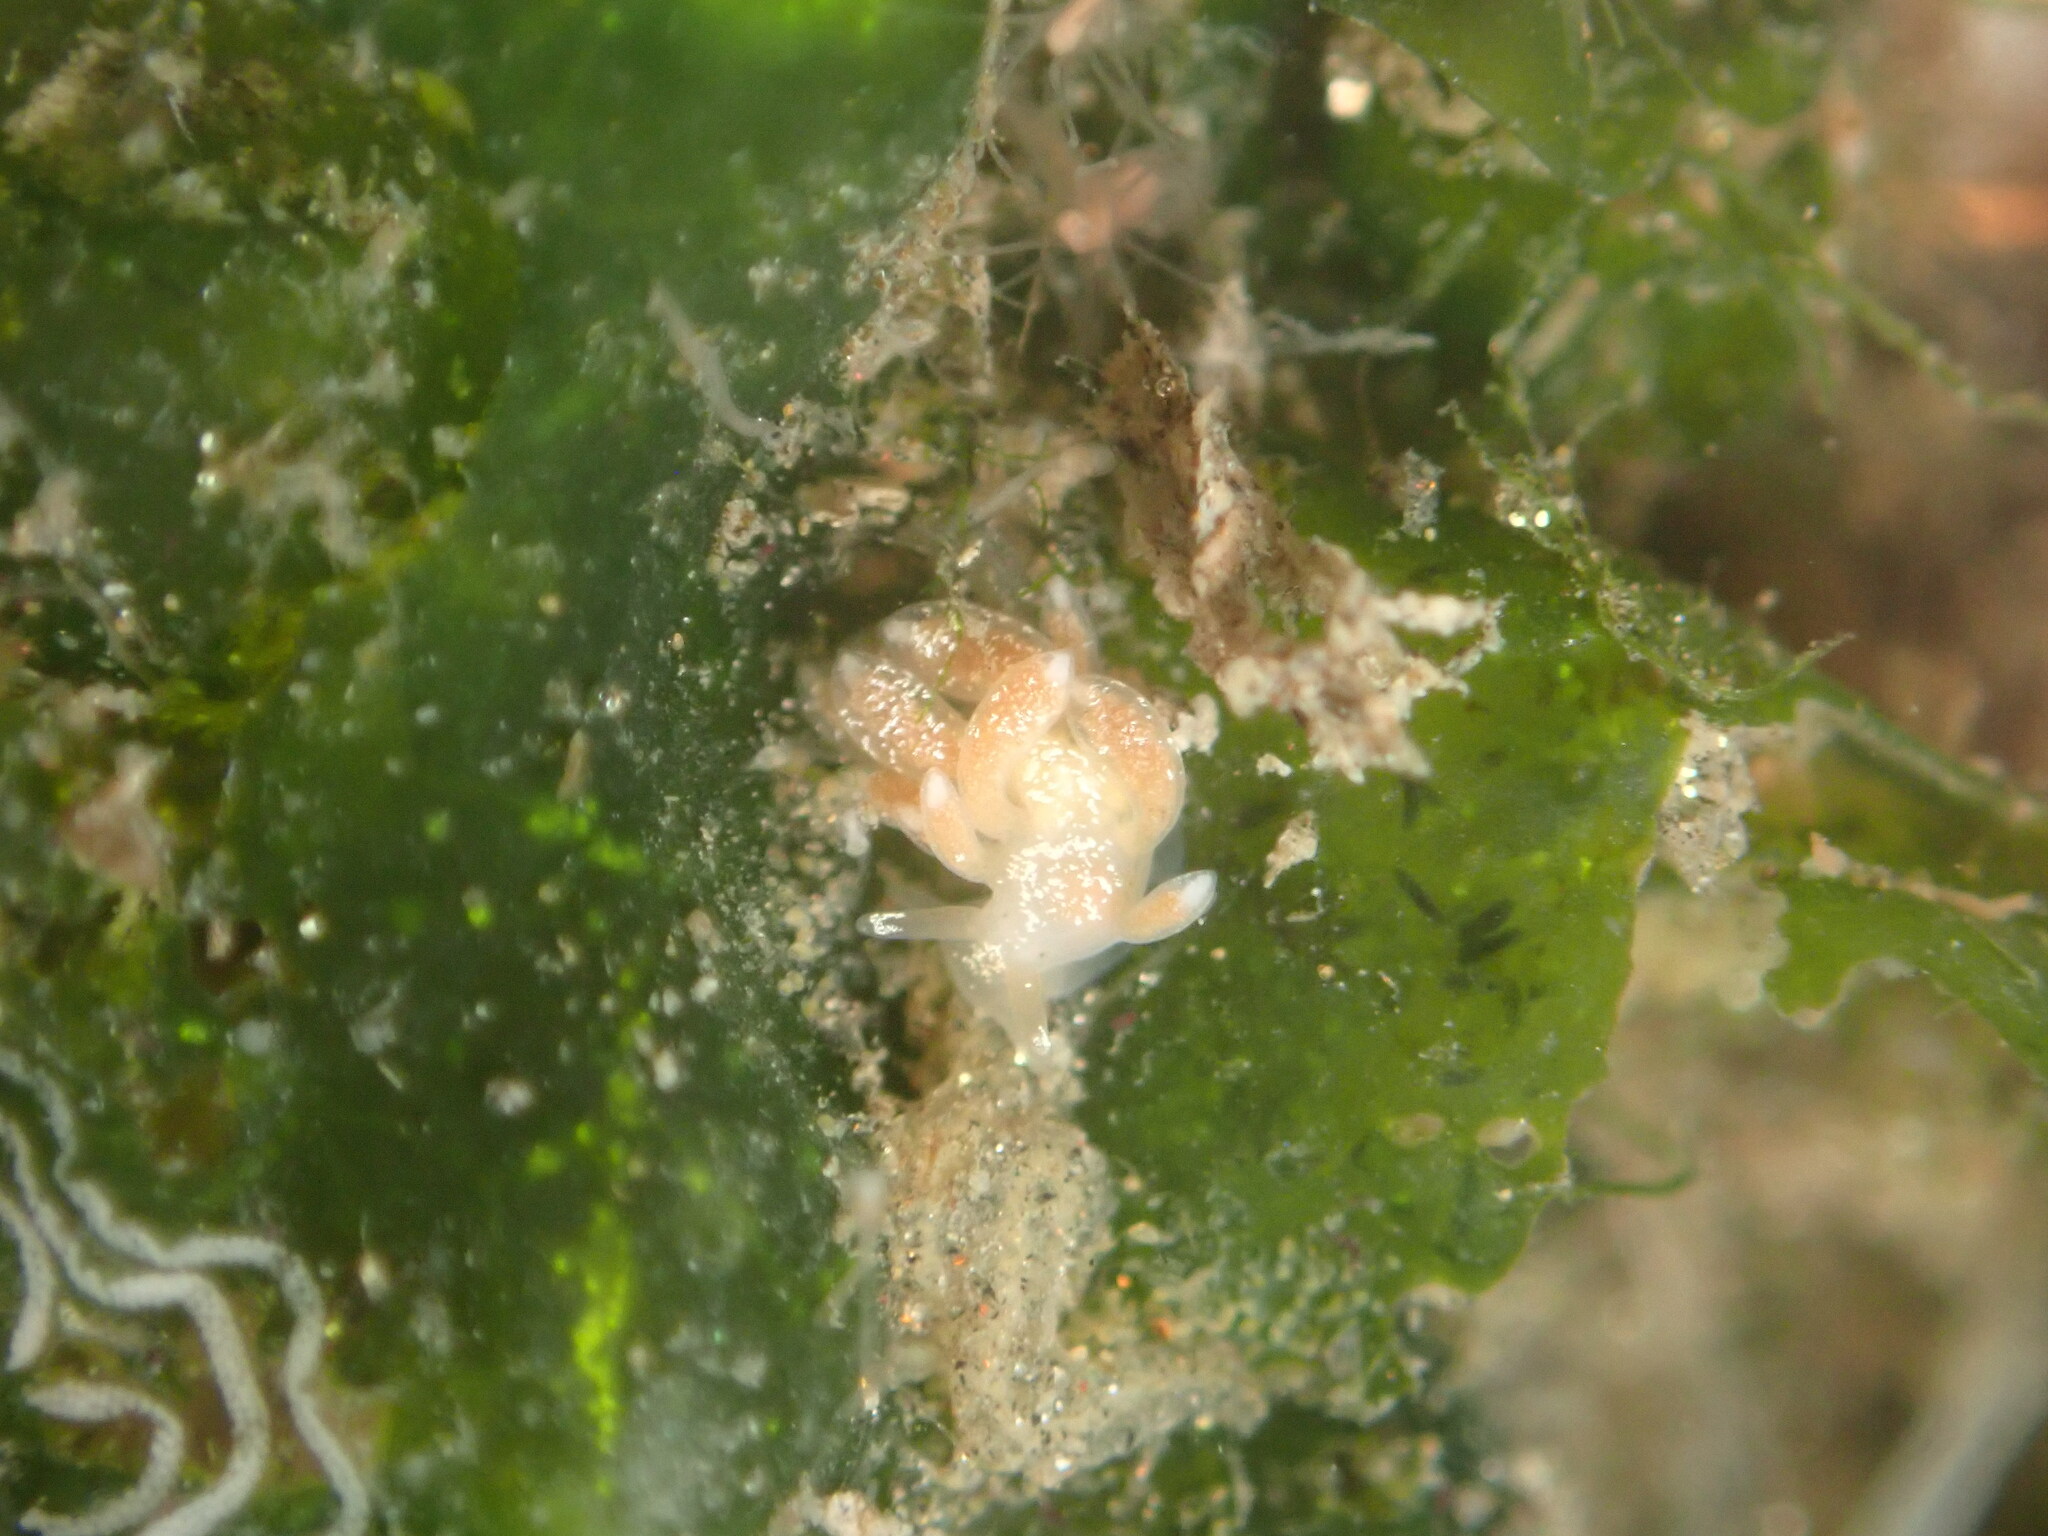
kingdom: Animalia
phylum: Mollusca
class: Gastropoda
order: Nudibranchia
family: Trinchesiidae
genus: Trinchesia
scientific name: Trinchesia albocrusta
